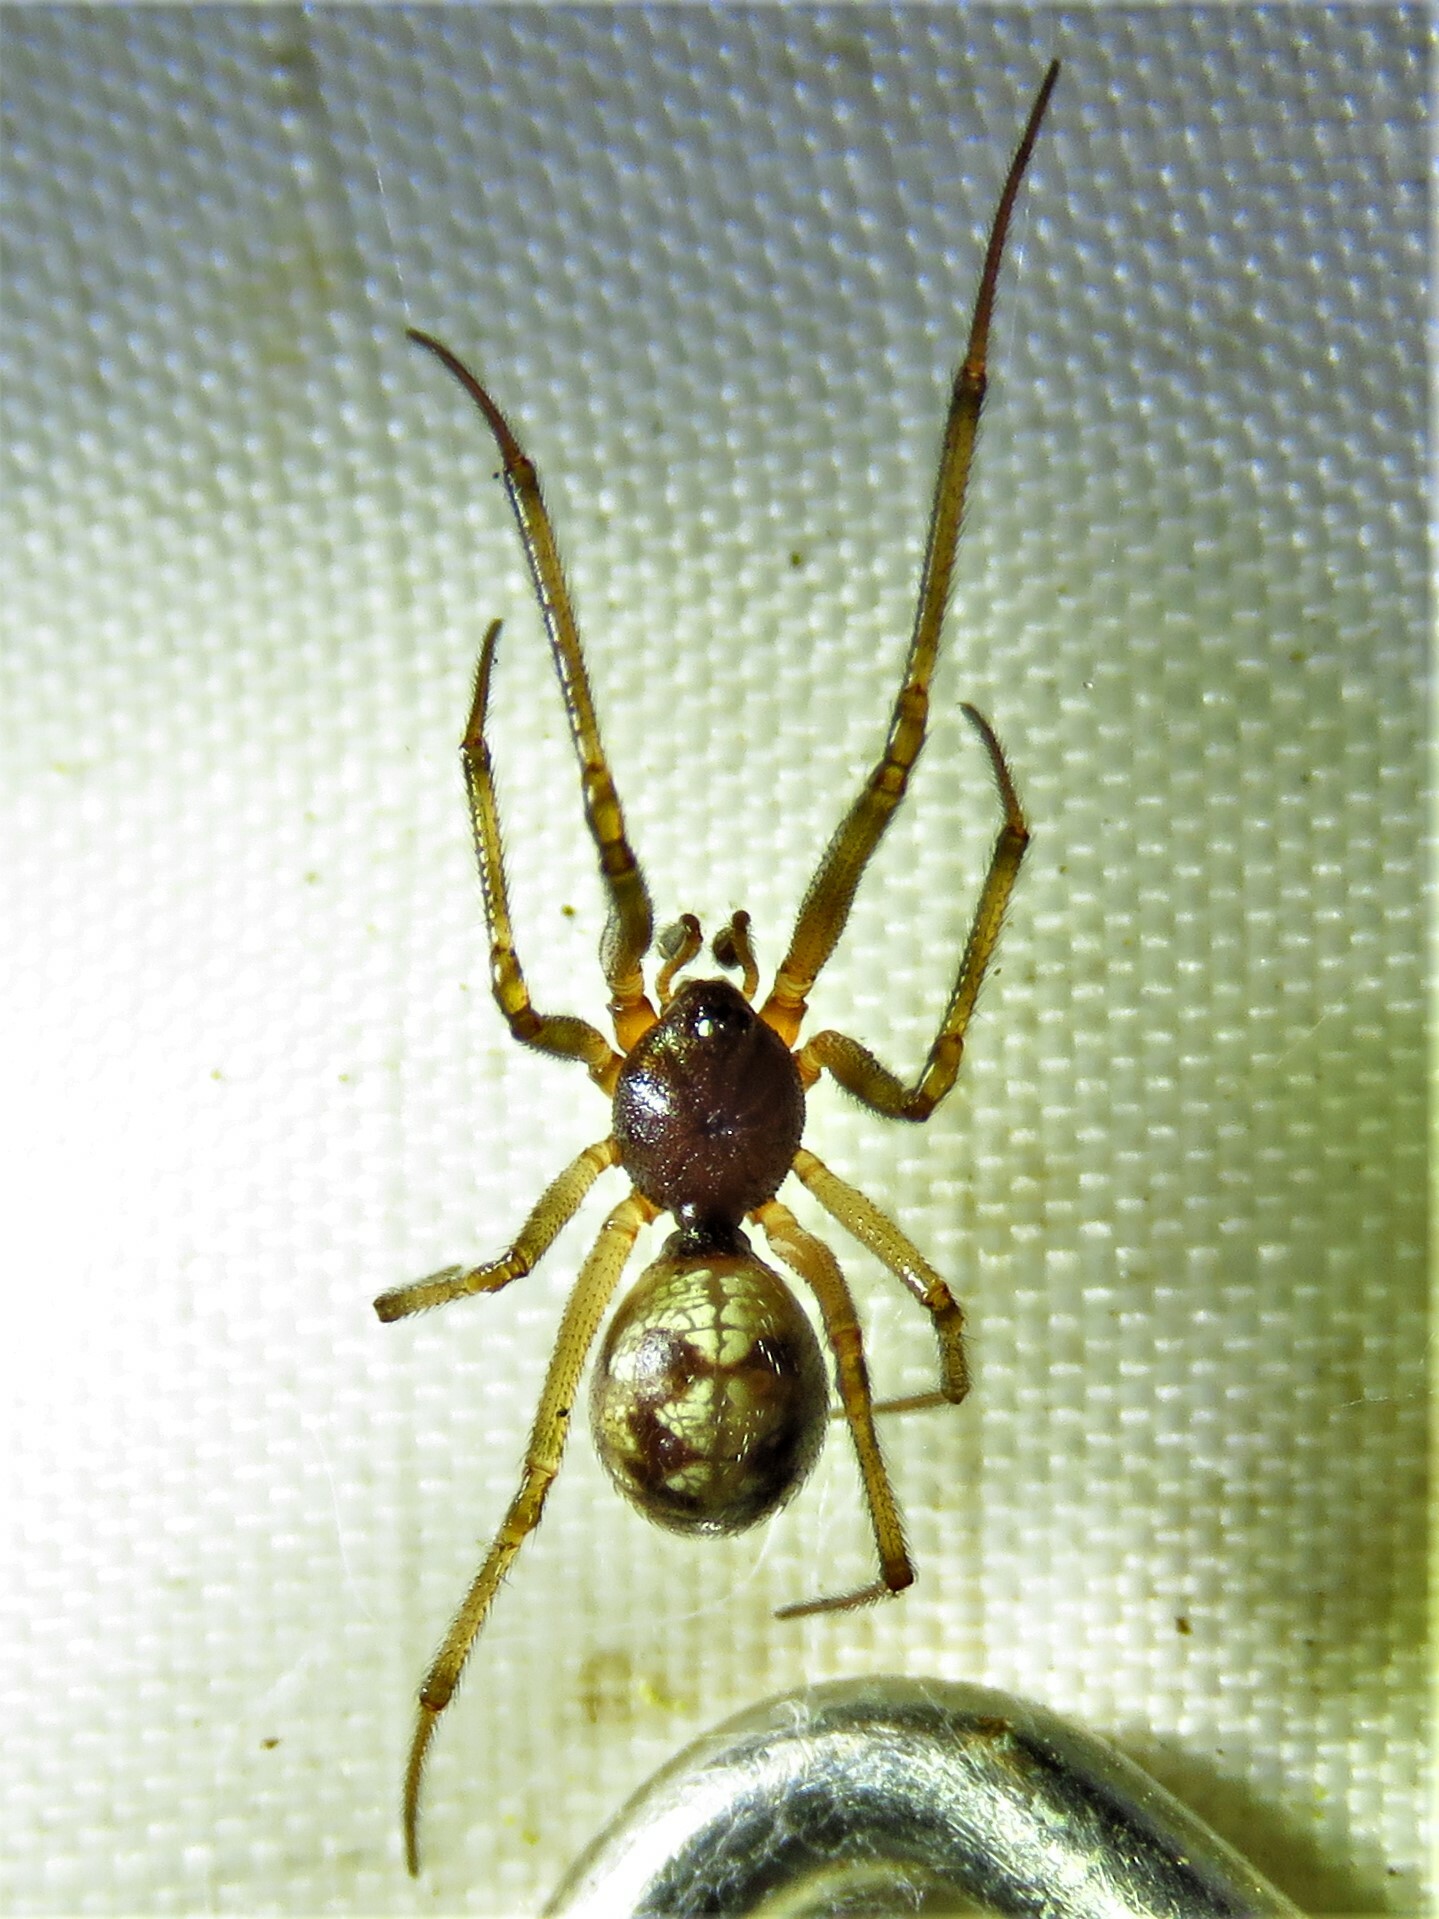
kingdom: Animalia
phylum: Arthropoda
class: Arachnida
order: Araneae
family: Theridiidae
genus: Steatoda
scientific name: Steatoda triangulosa
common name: Triangulate bud spider
